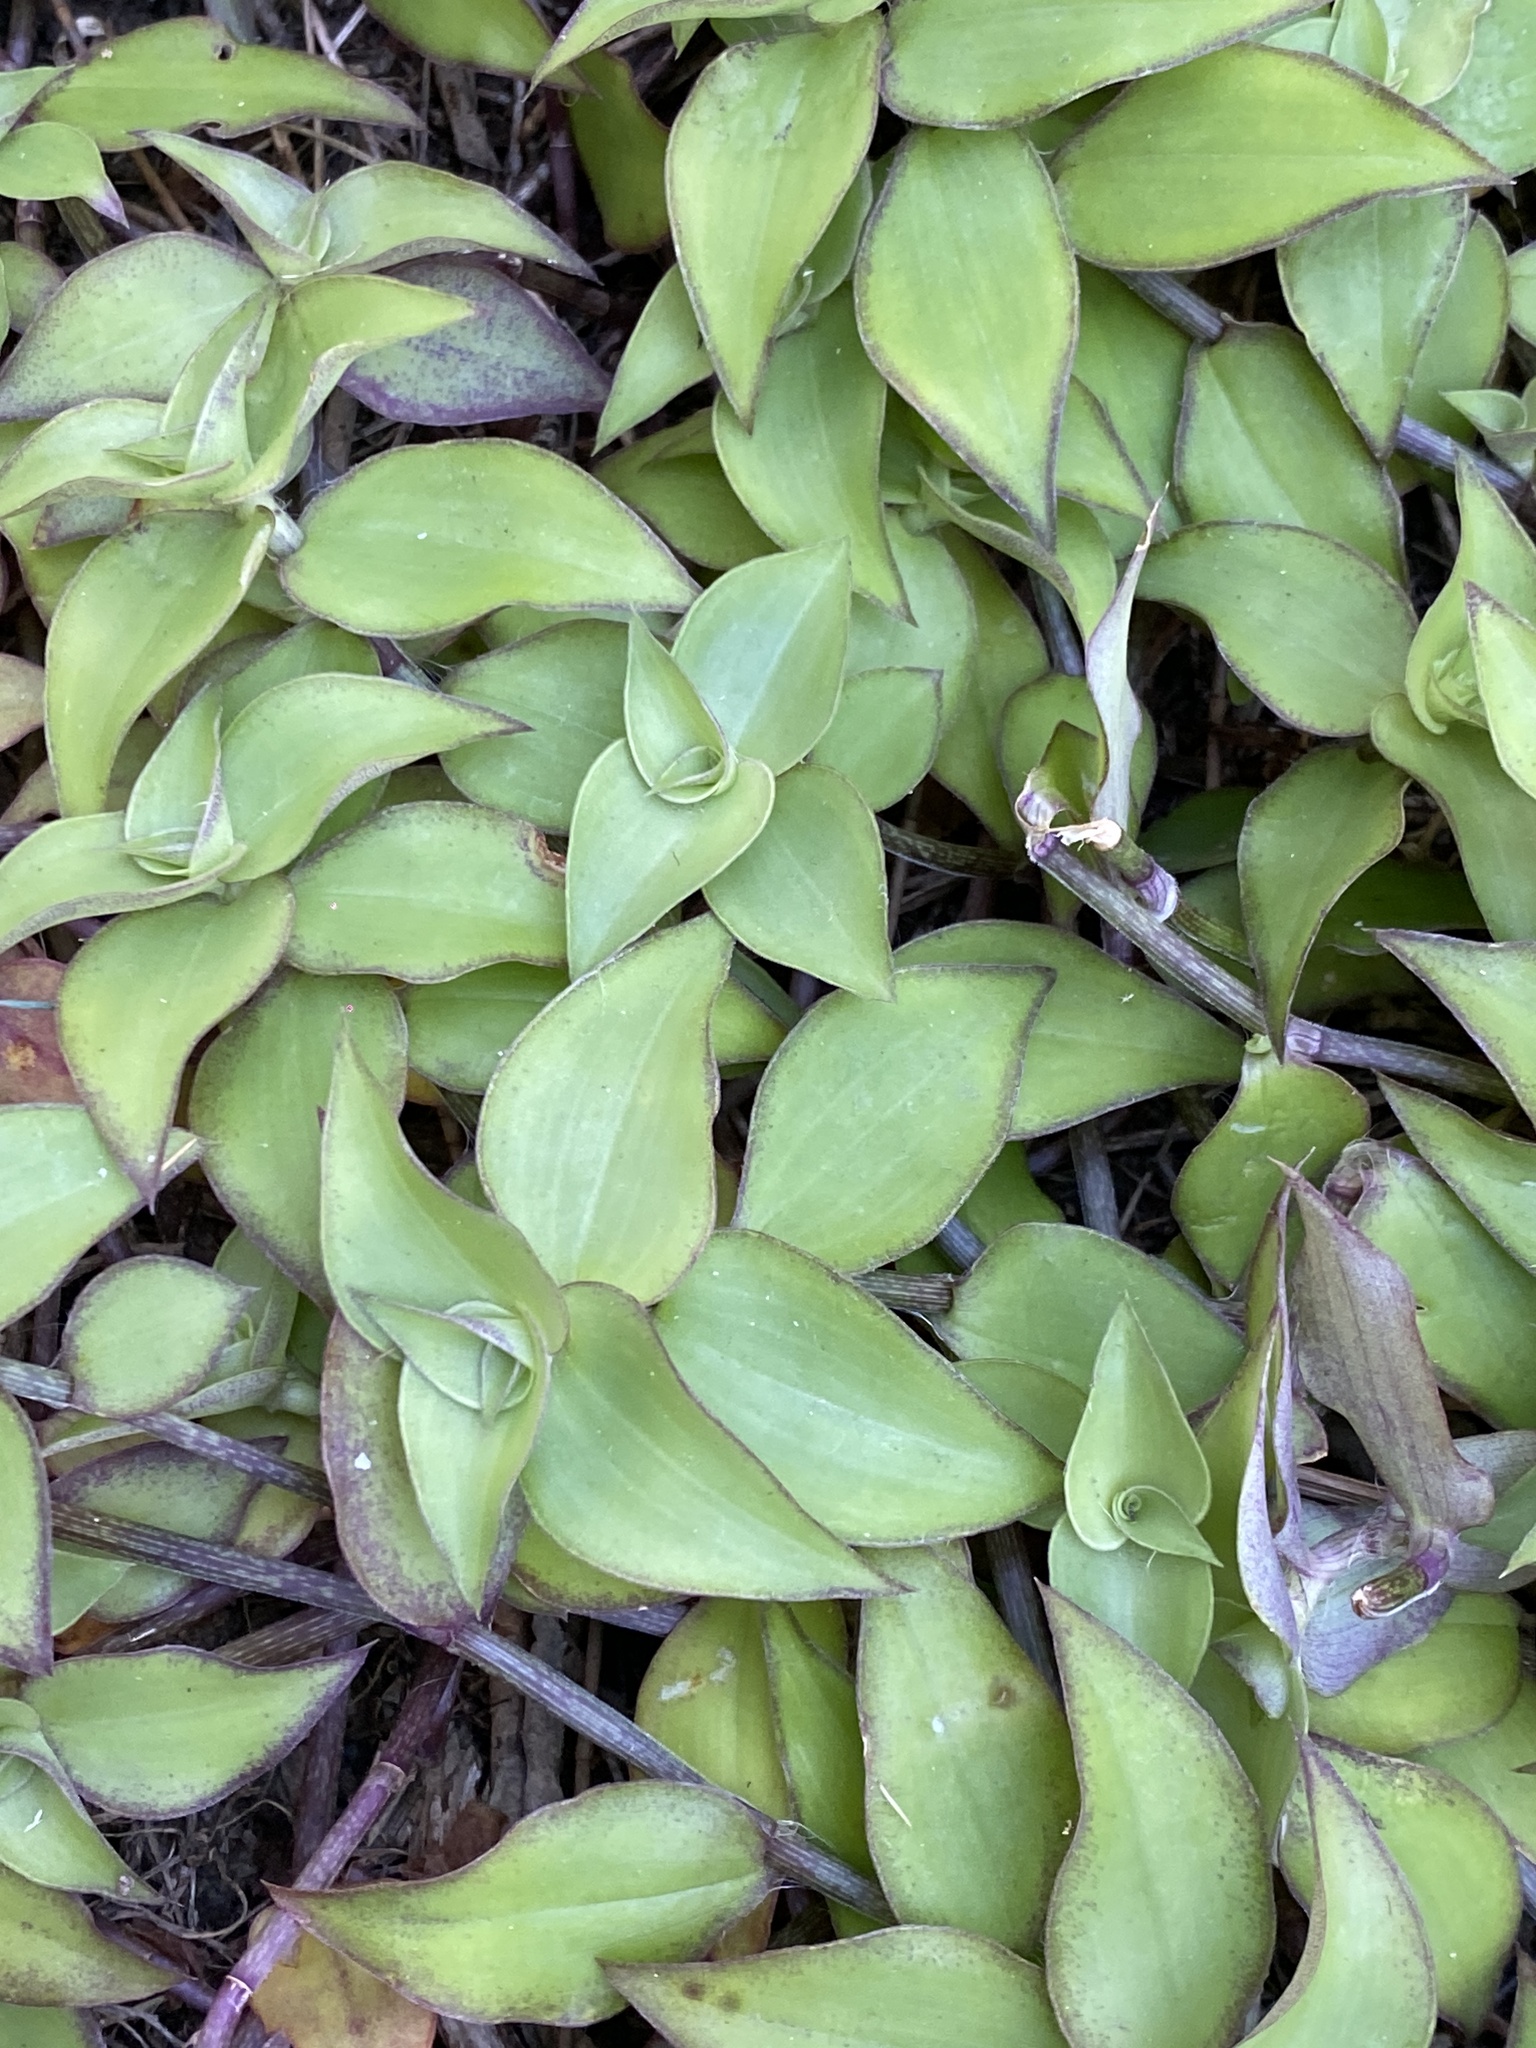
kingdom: Plantae
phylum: Tracheophyta
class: Liliopsida
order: Commelinales
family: Commelinaceae
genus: Callisia
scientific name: Callisia repens
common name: Creeping inchplant
